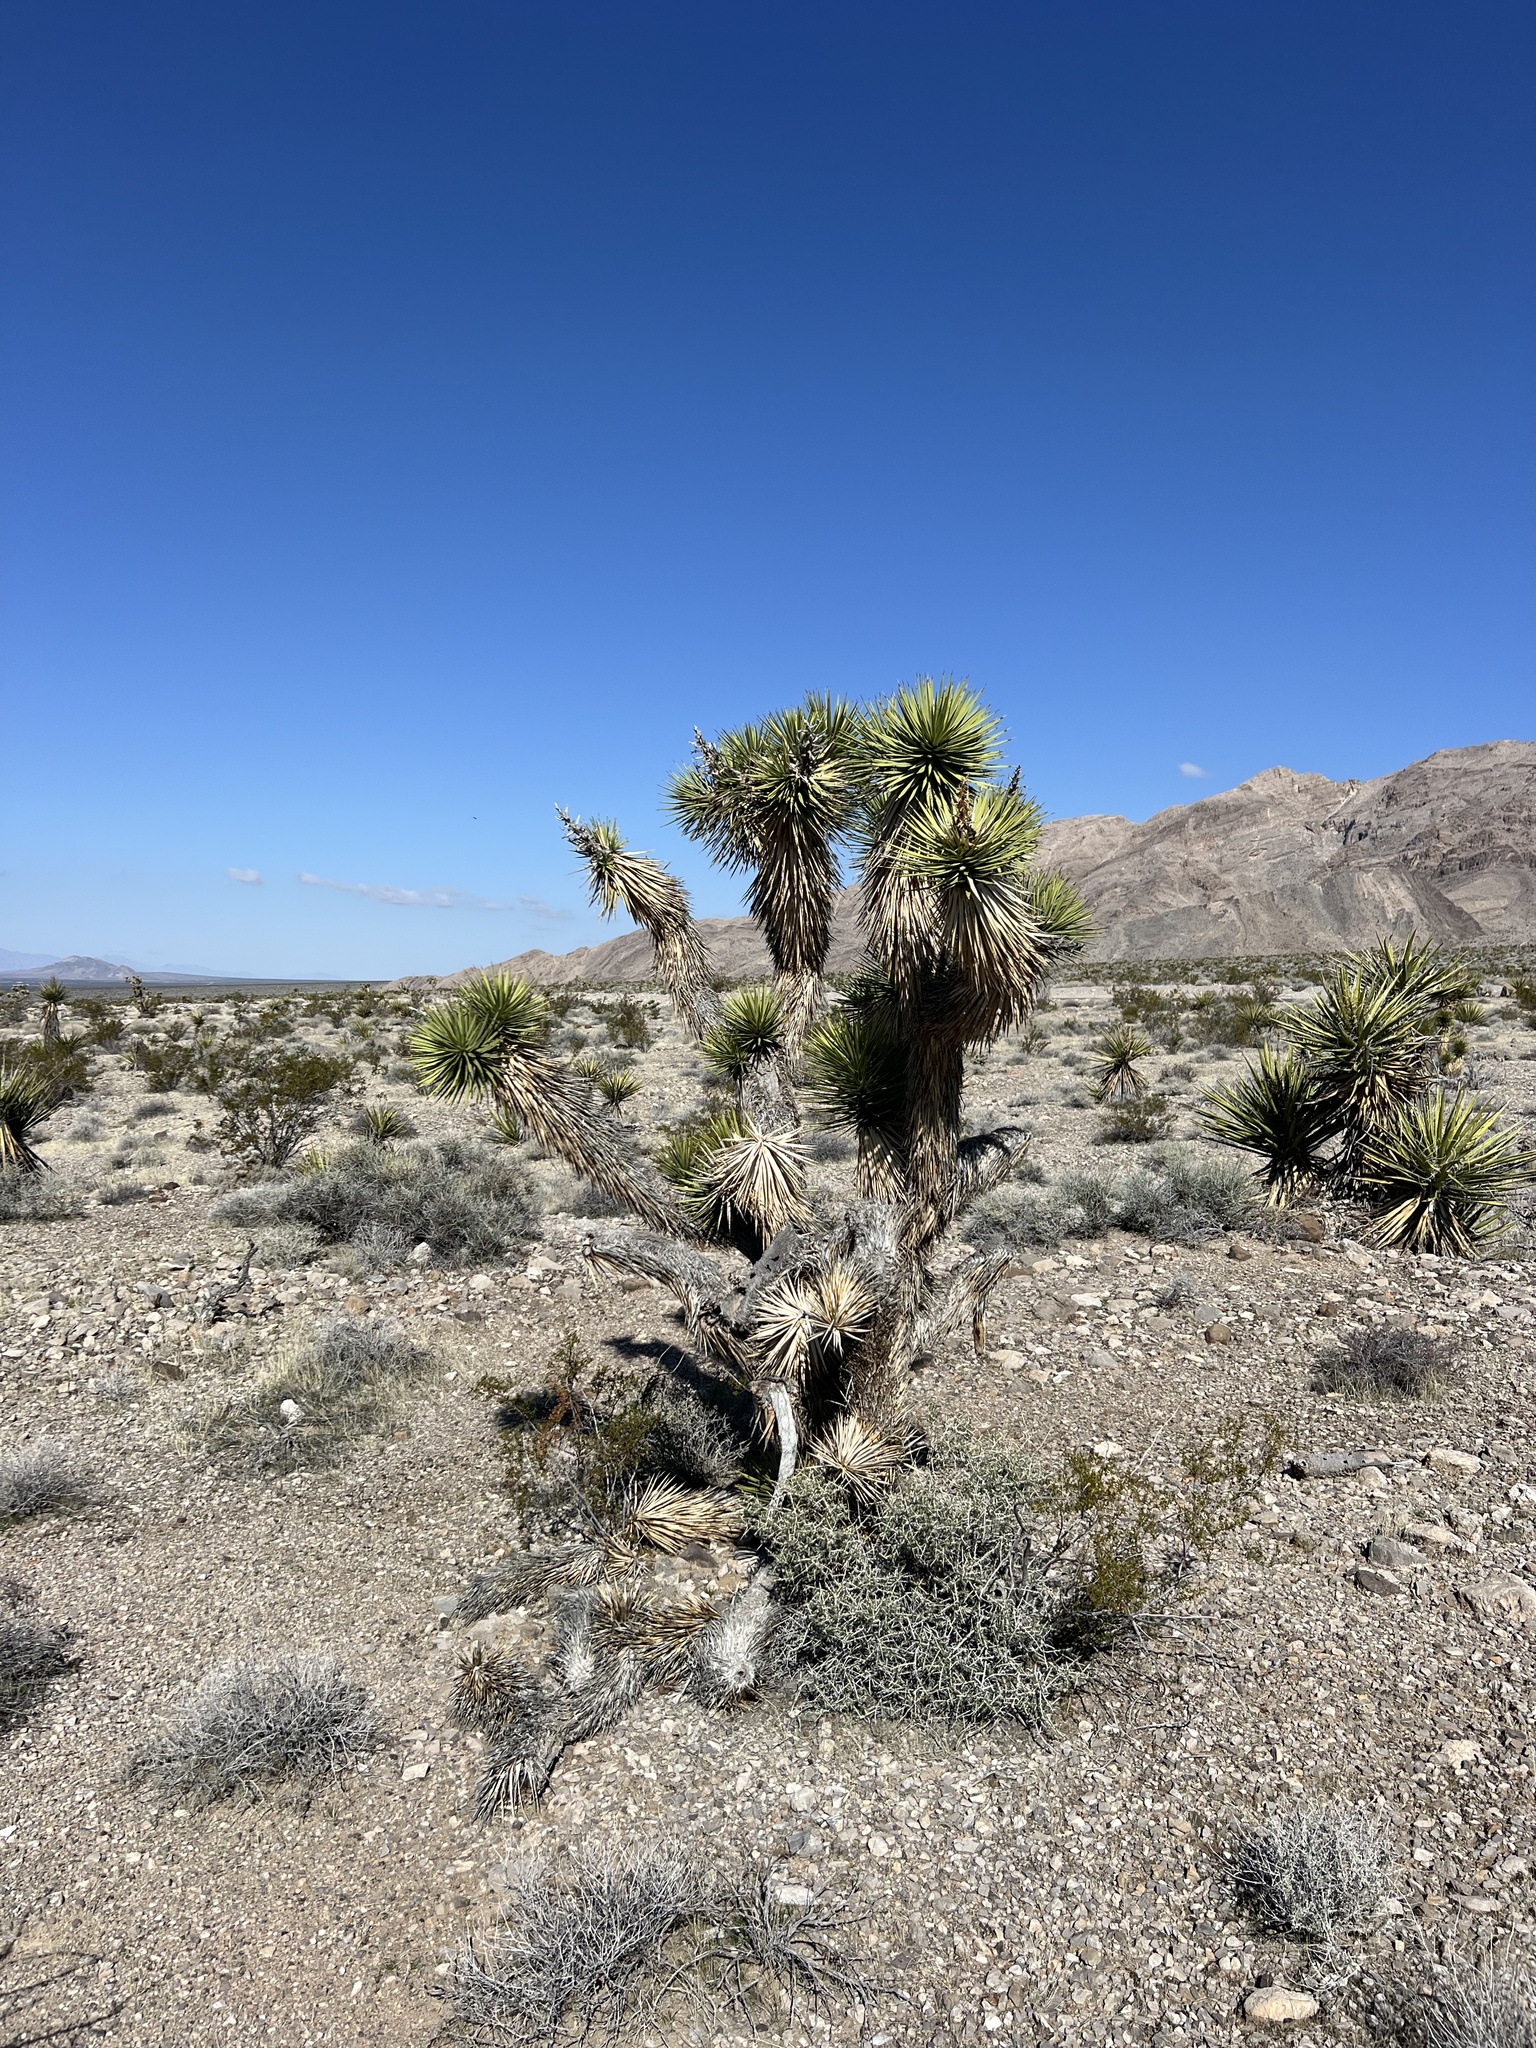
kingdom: Plantae
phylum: Tracheophyta
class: Liliopsida
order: Asparagales
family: Asparagaceae
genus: Yucca
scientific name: Yucca brevifolia
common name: Joshua tree
